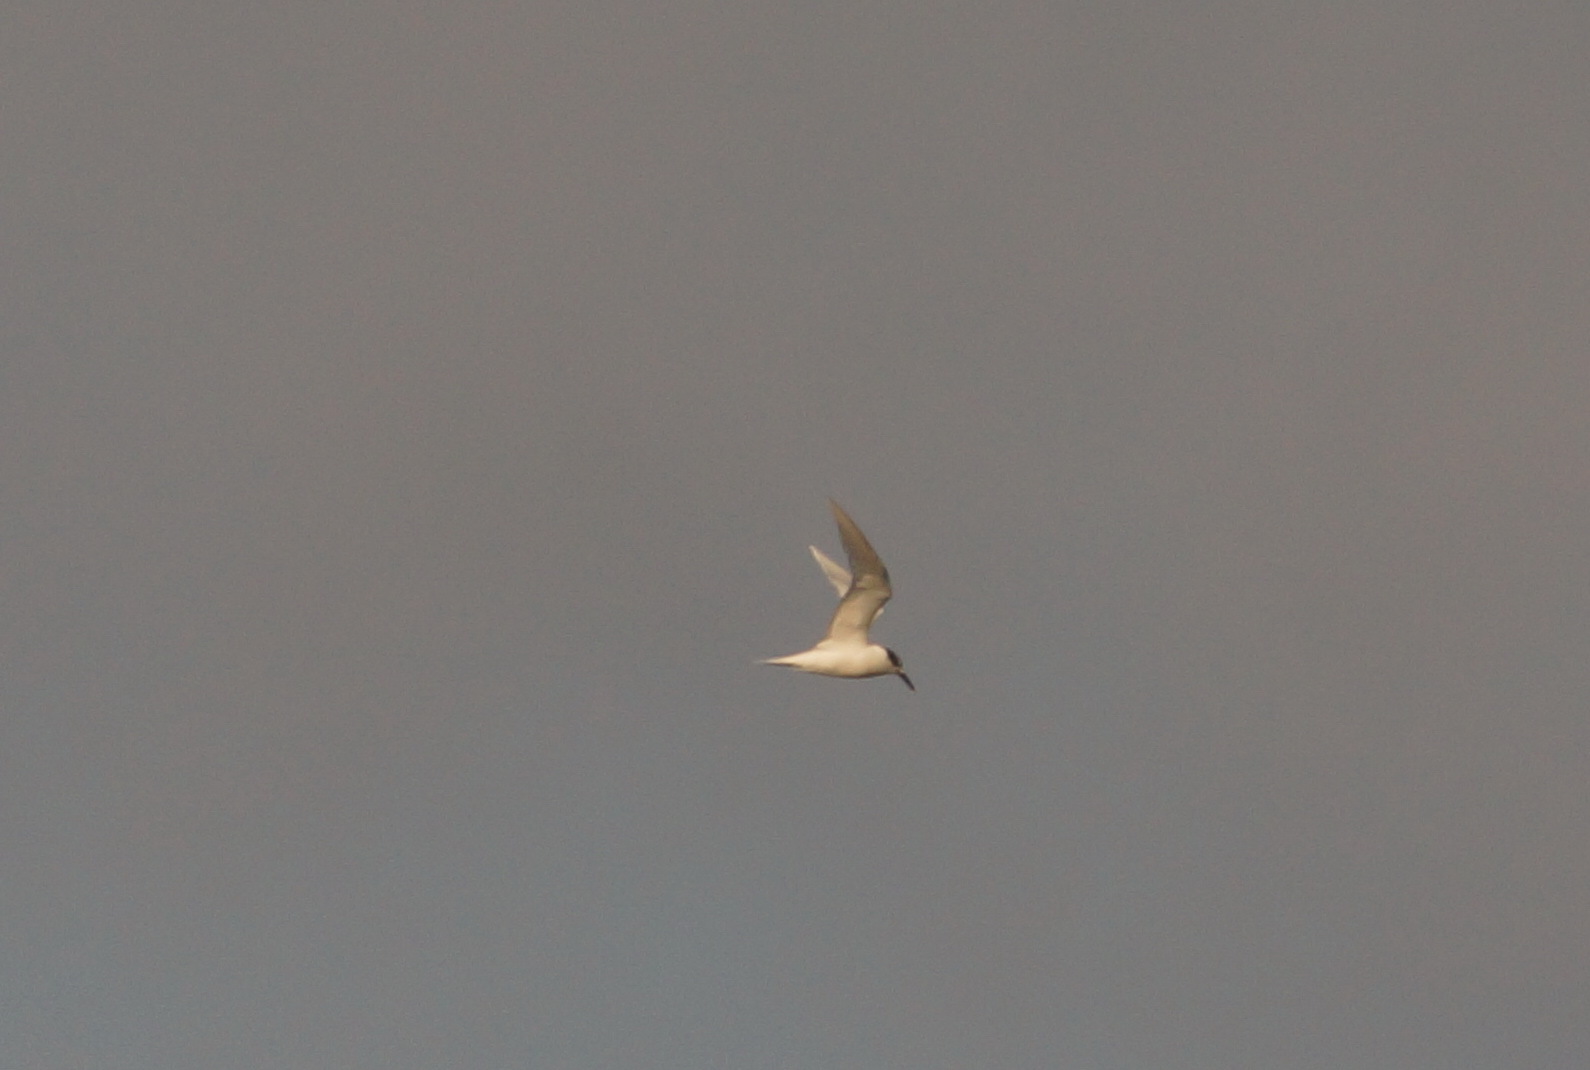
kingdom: Animalia
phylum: Chordata
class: Aves
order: Charadriiformes
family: Laridae
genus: Thalasseus
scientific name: Thalasseus sandvicensis
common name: Sandwich tern
